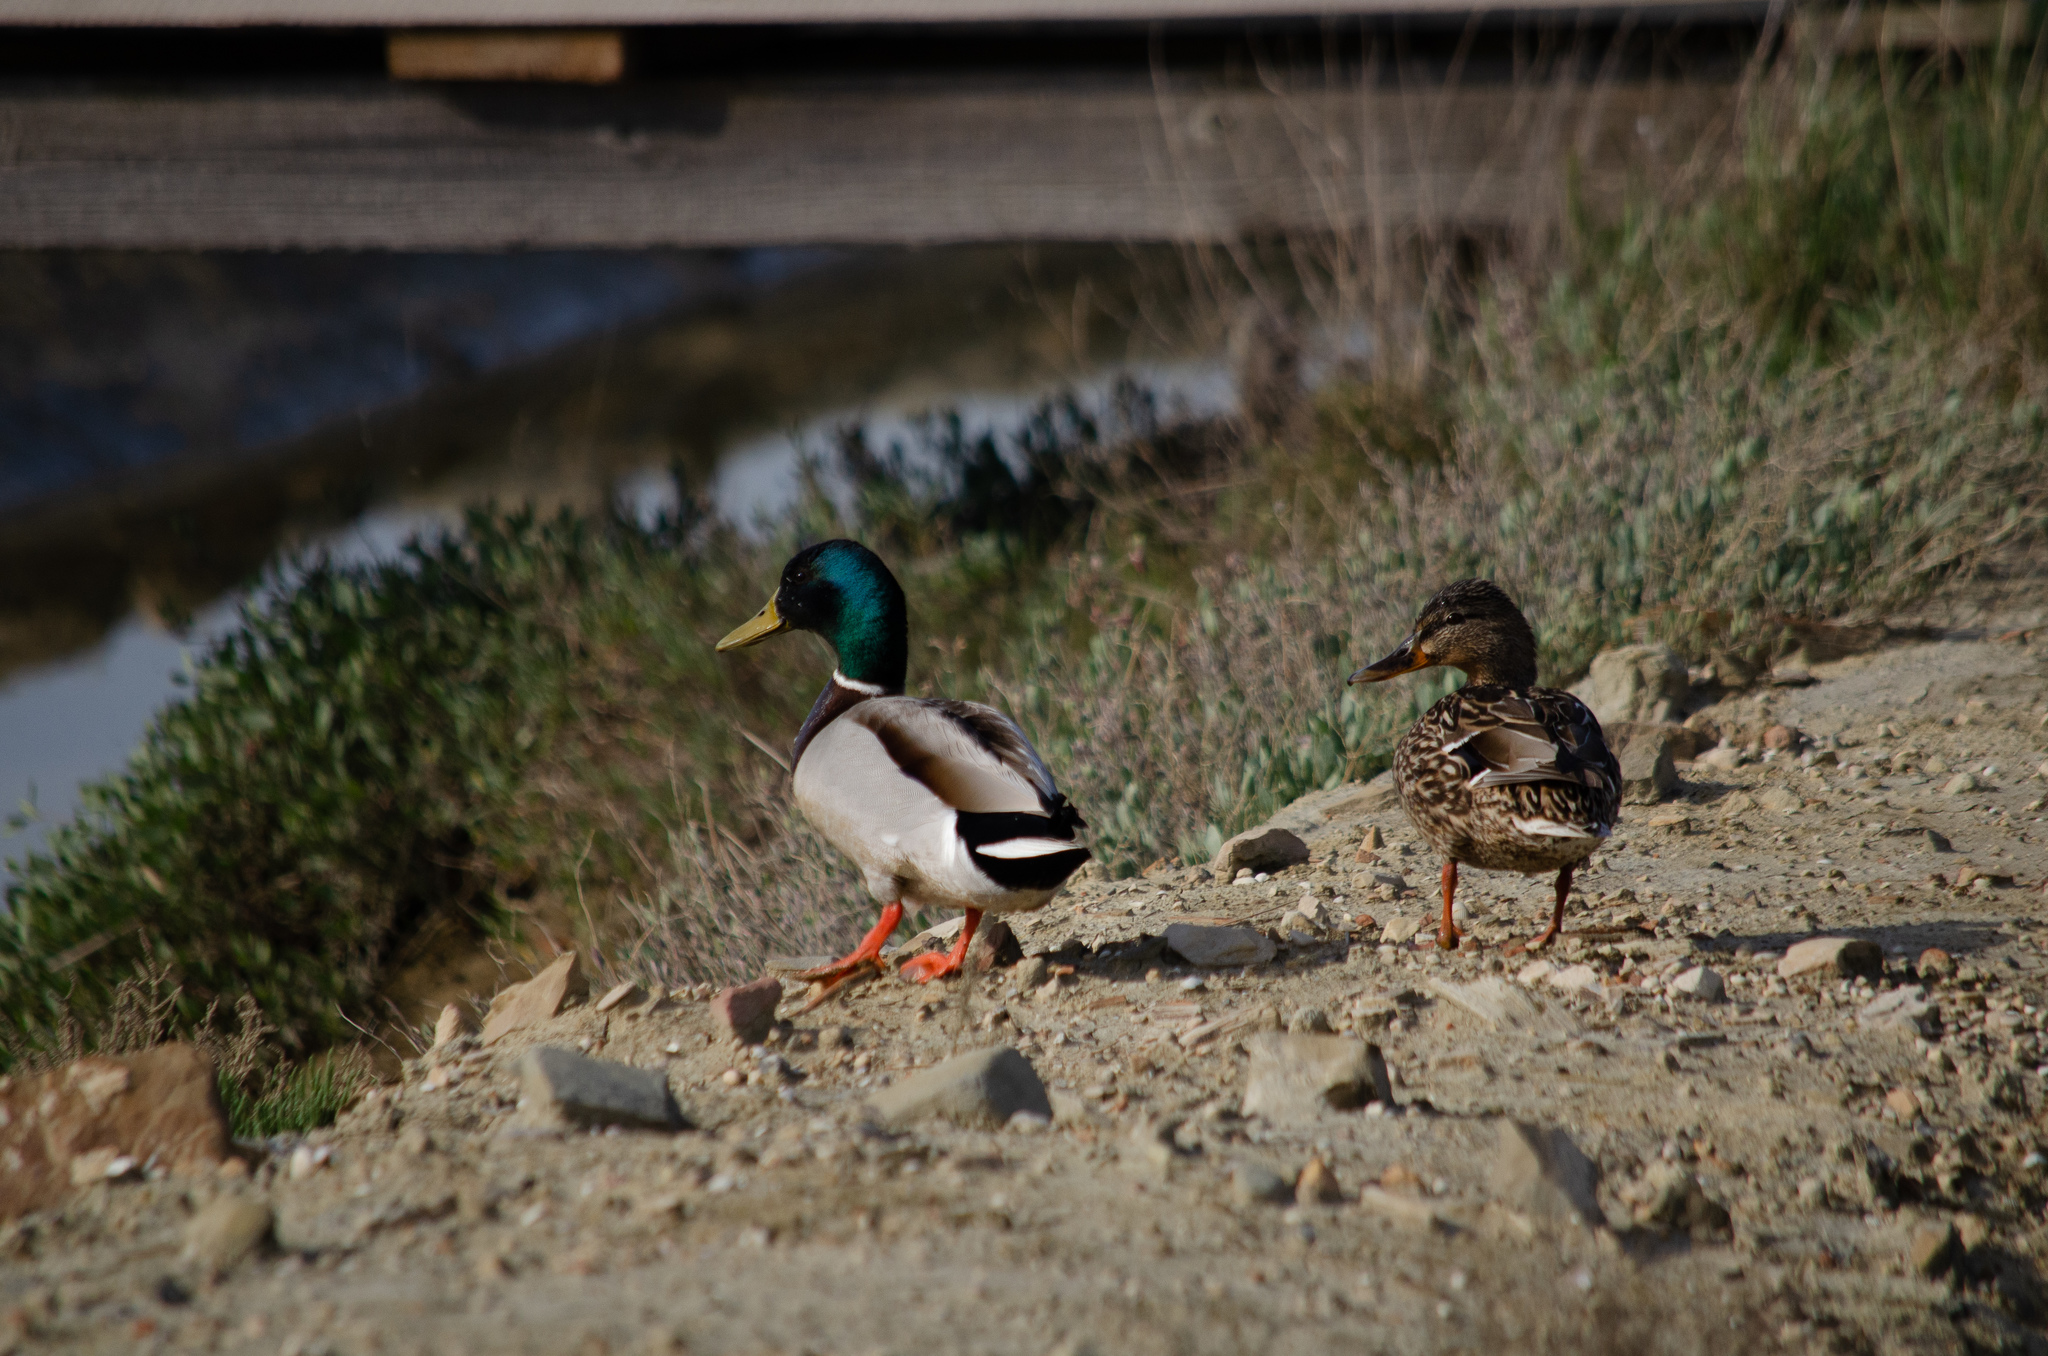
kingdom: Animalia
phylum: Chordata
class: Aves
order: Anseriformes
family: Anatidae
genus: Anas
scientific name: Anas platyrhynchos
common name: Mallard
